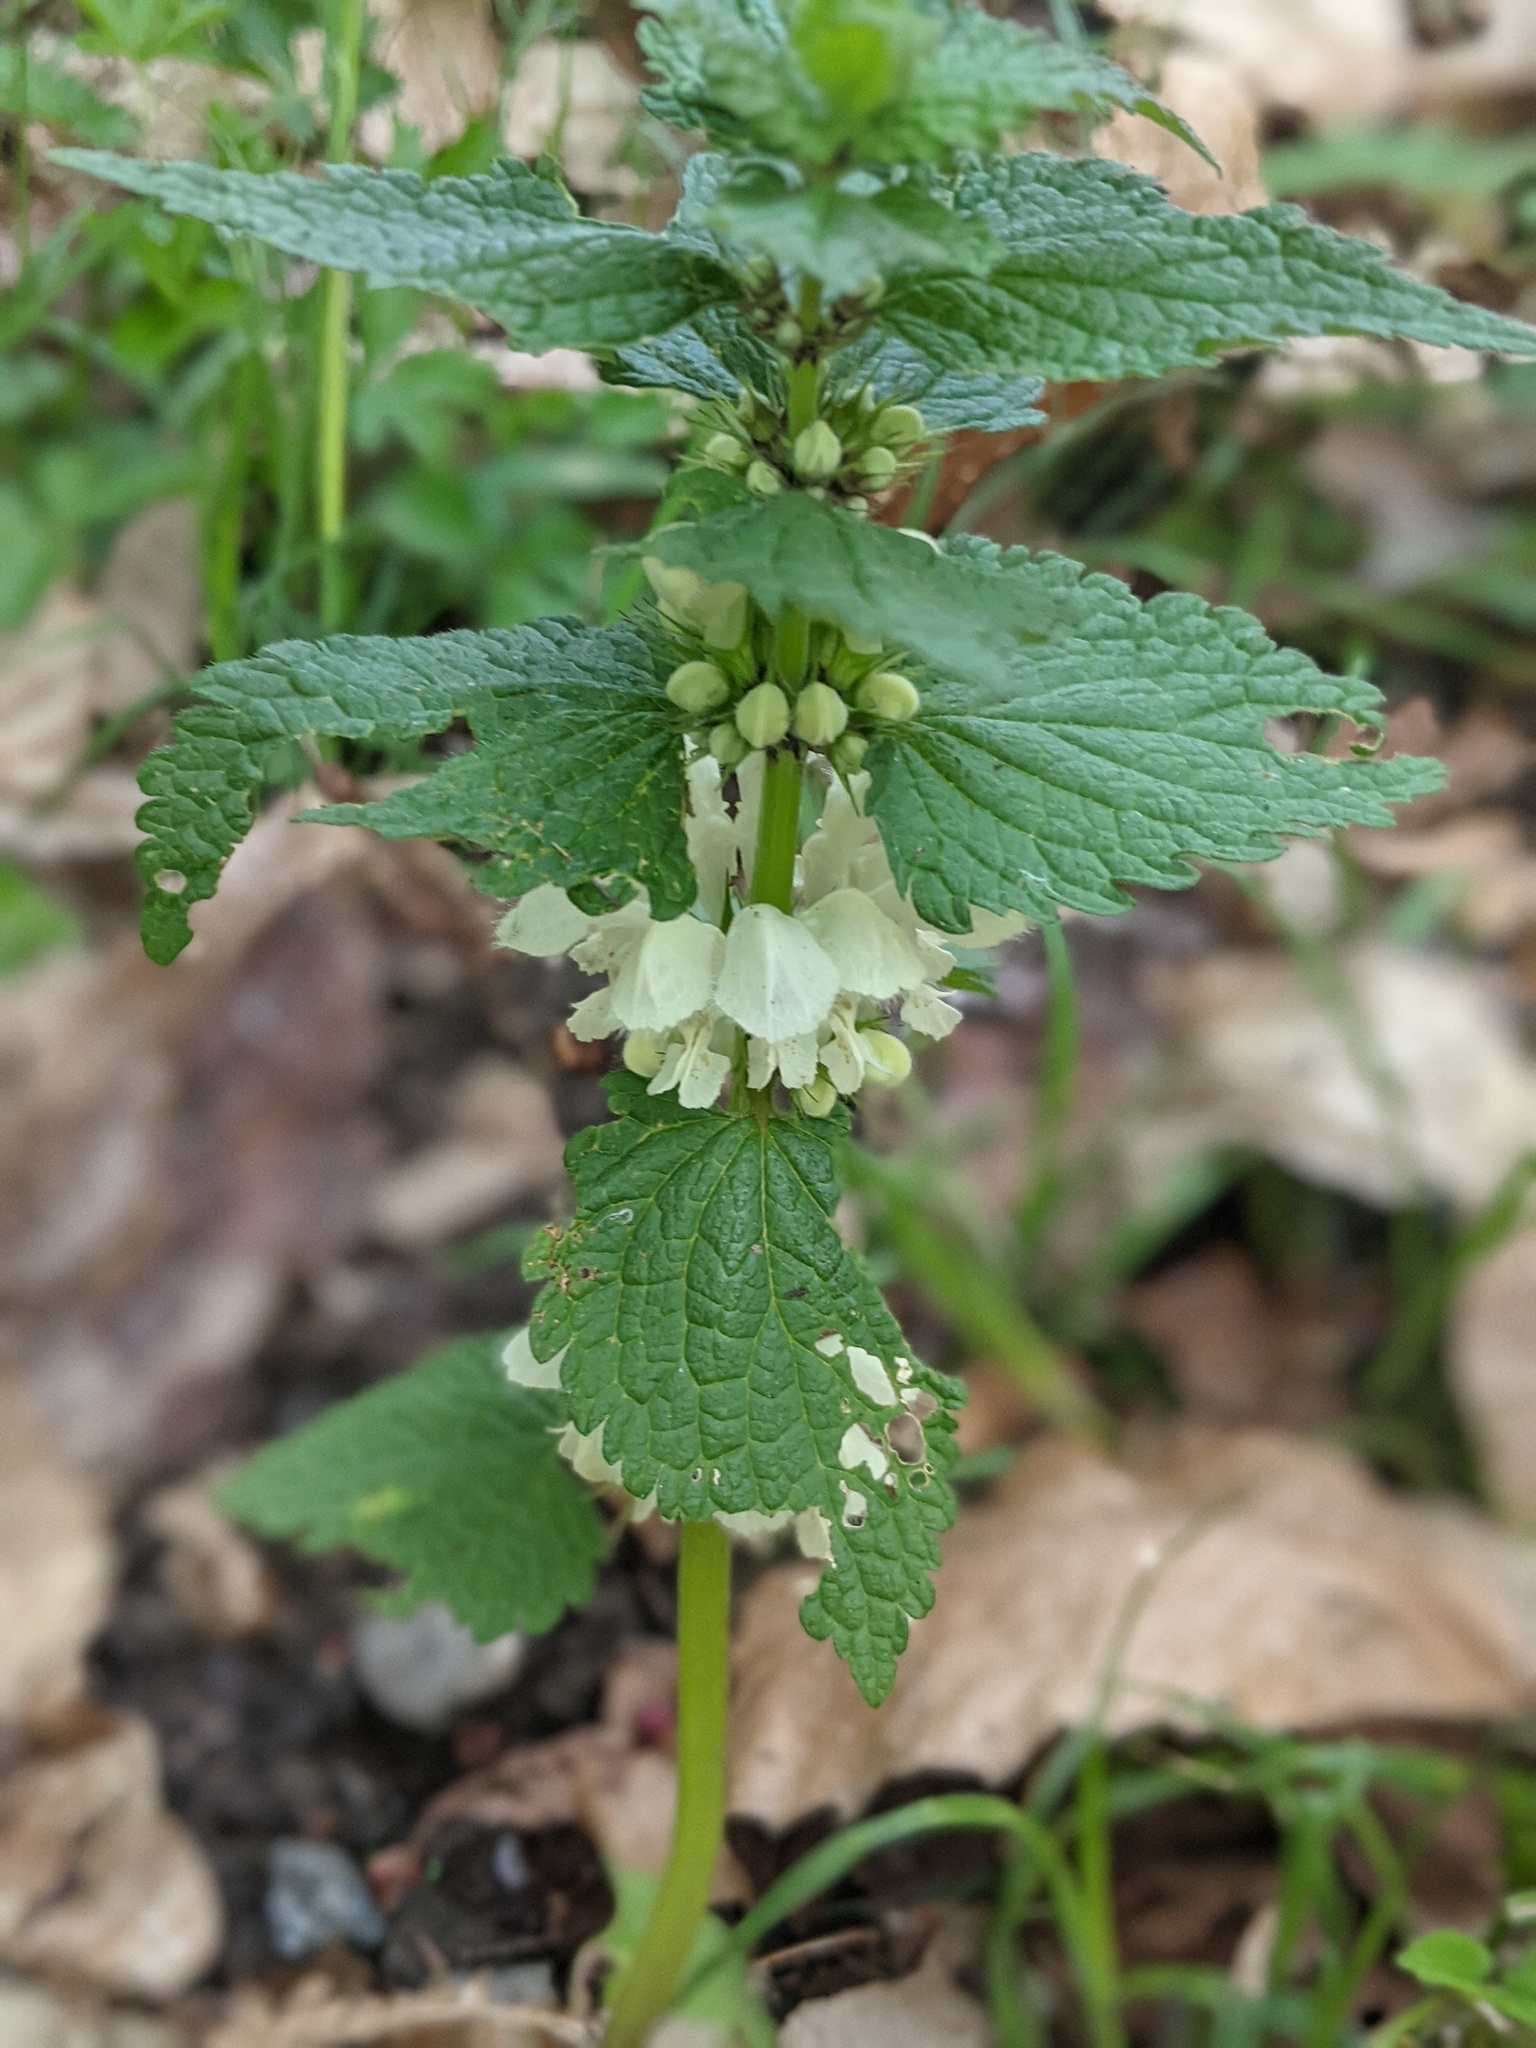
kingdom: Plantae
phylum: Tracheophyta
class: Magnoliopsida
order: Lamiales
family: Lamiaceae
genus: Lamium
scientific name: Lamium album
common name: White dead-nettle
